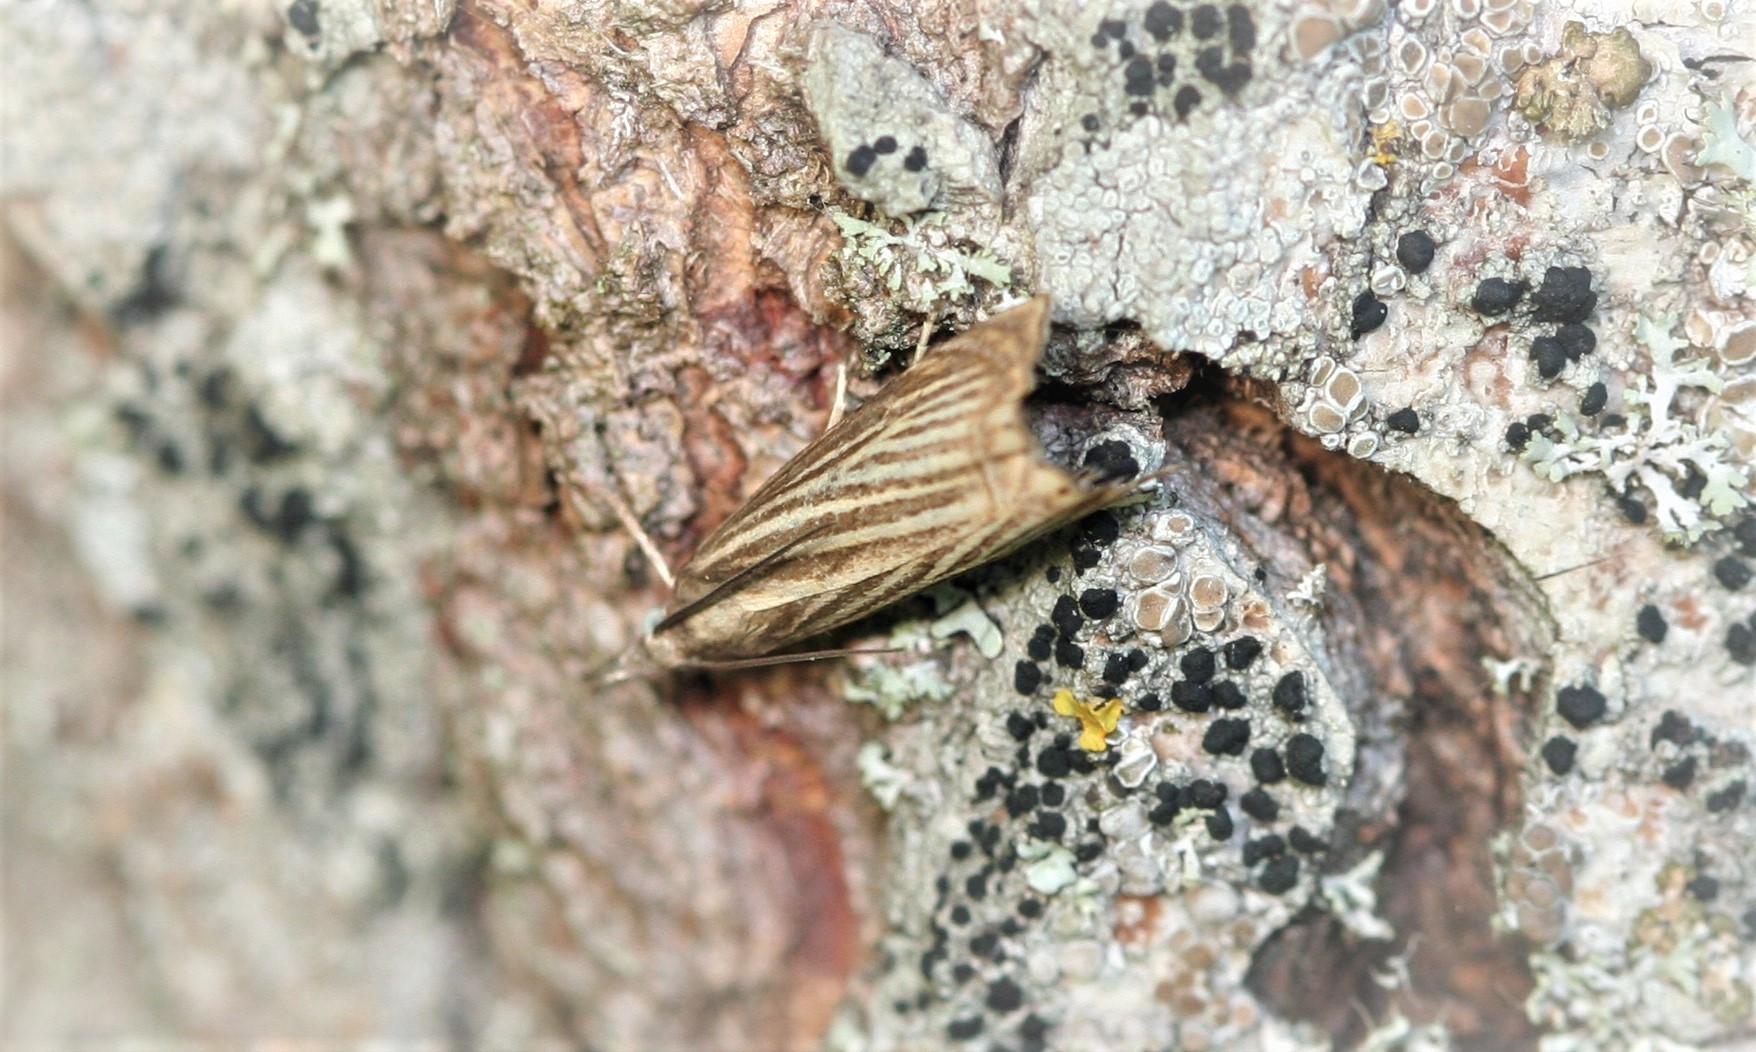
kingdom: Animalia
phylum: Arthropoda
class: Insecta
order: Lepidoptera
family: Crambidae
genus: Chrysoteuchia
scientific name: Chrysoteuchia culmella
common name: Garden grass-veneer
